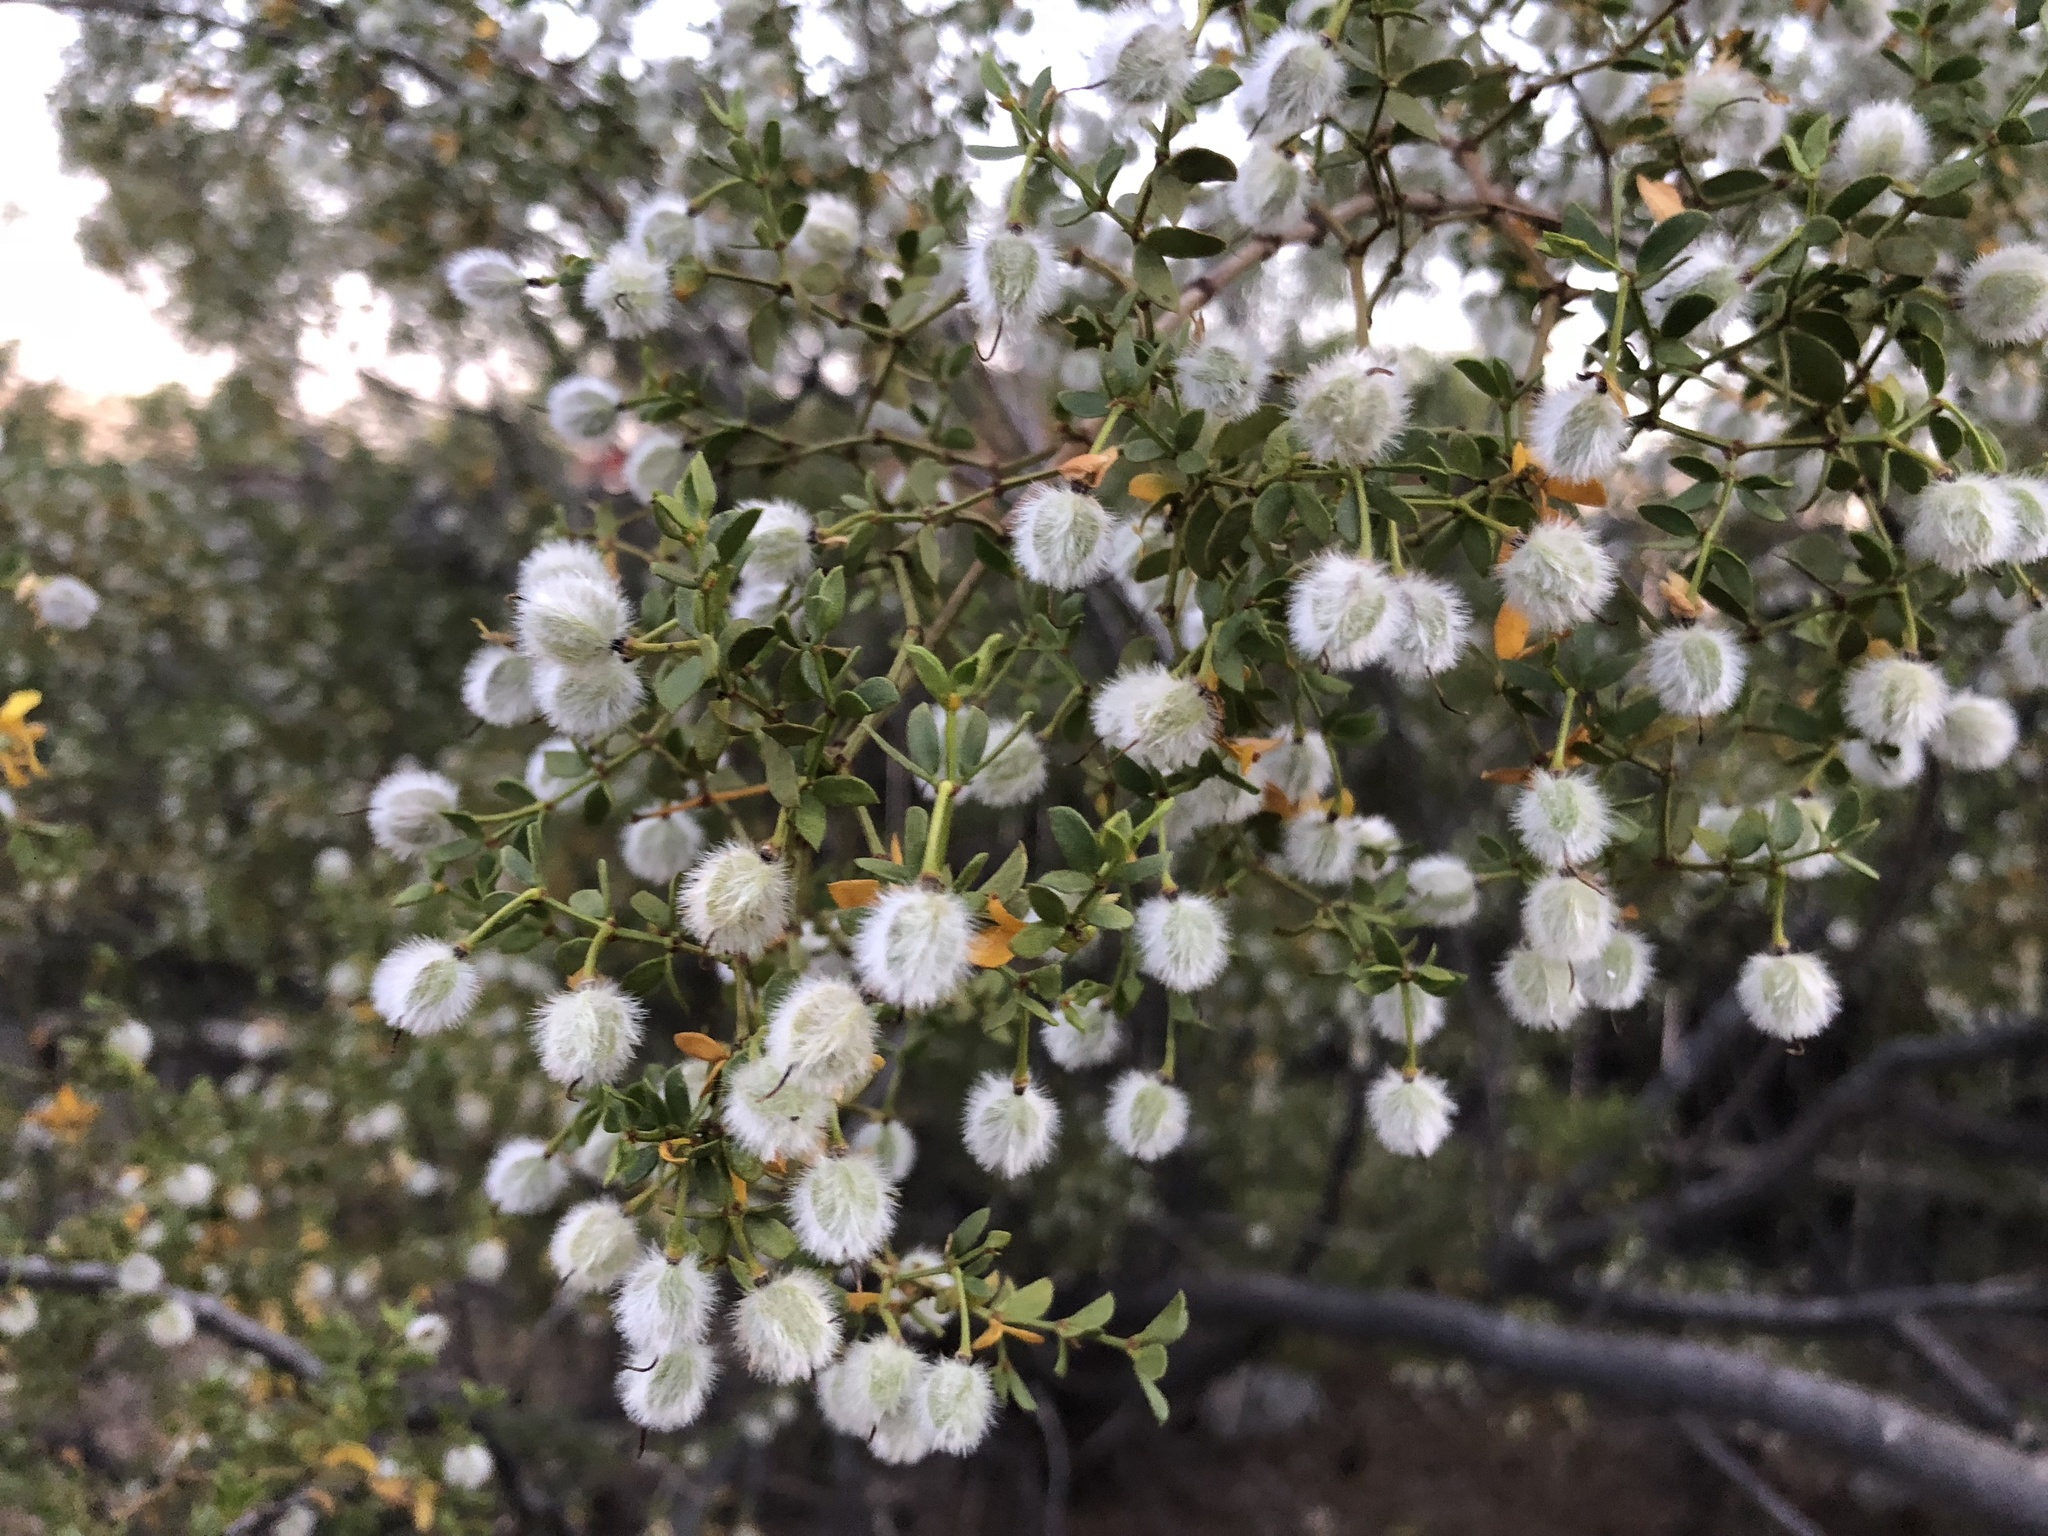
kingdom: Plantae
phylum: Tracheophyta
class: Magnoliopsida
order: Zygophyllales
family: Zygophyllaceae
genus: Larrea
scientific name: Larrea tridentata
